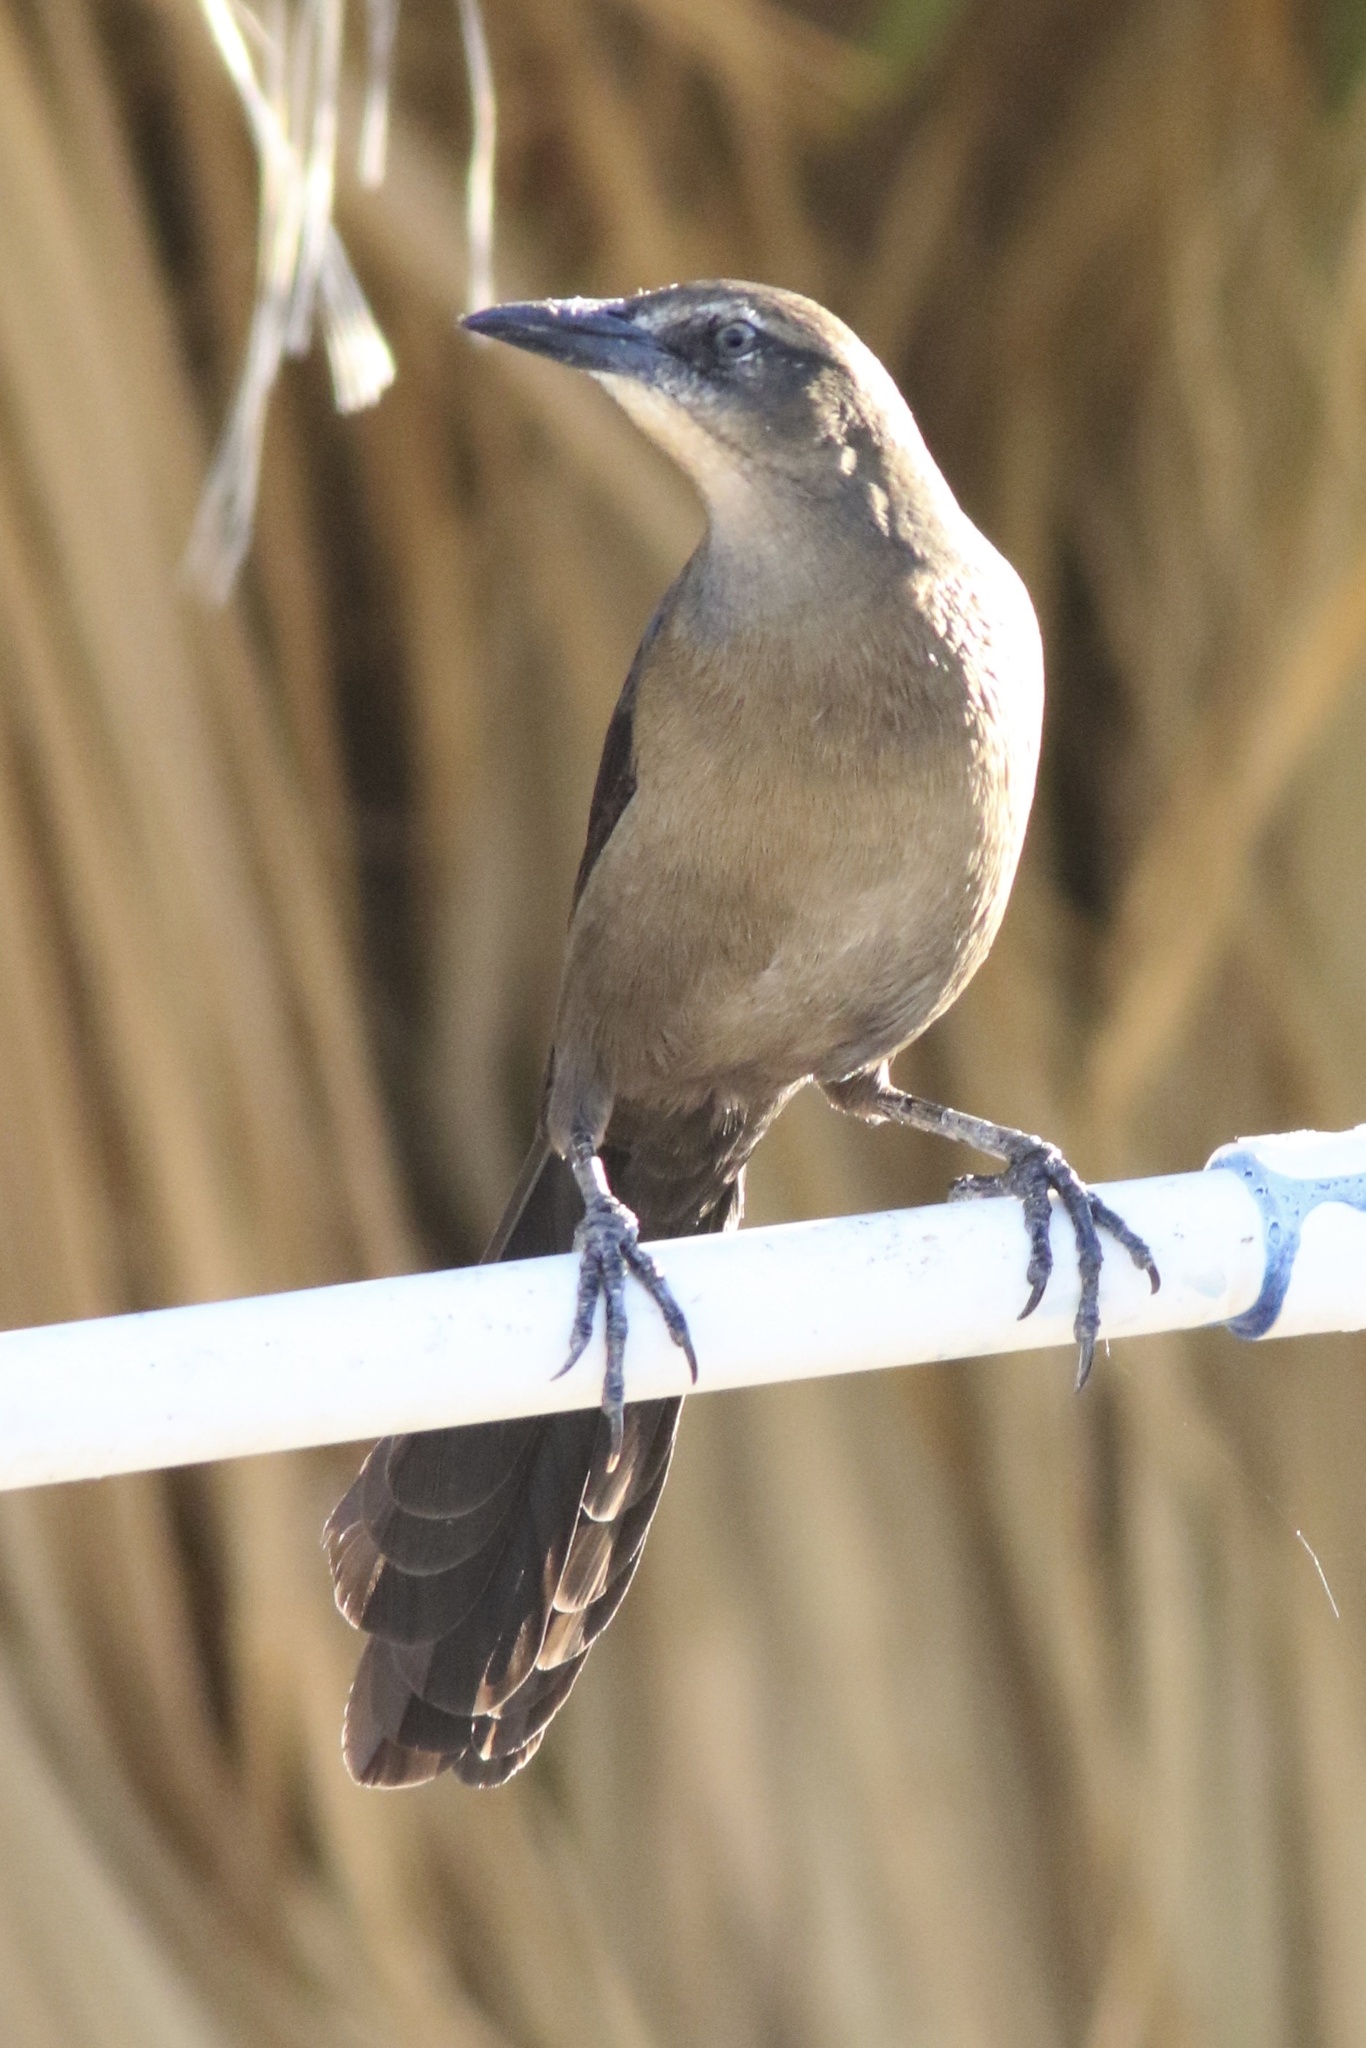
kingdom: Animalia
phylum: Chordata
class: Aves
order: Passeriformes
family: Icteridae
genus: Quiscalus
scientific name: Quiscalus mexicanus
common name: Great-tailed grackle
